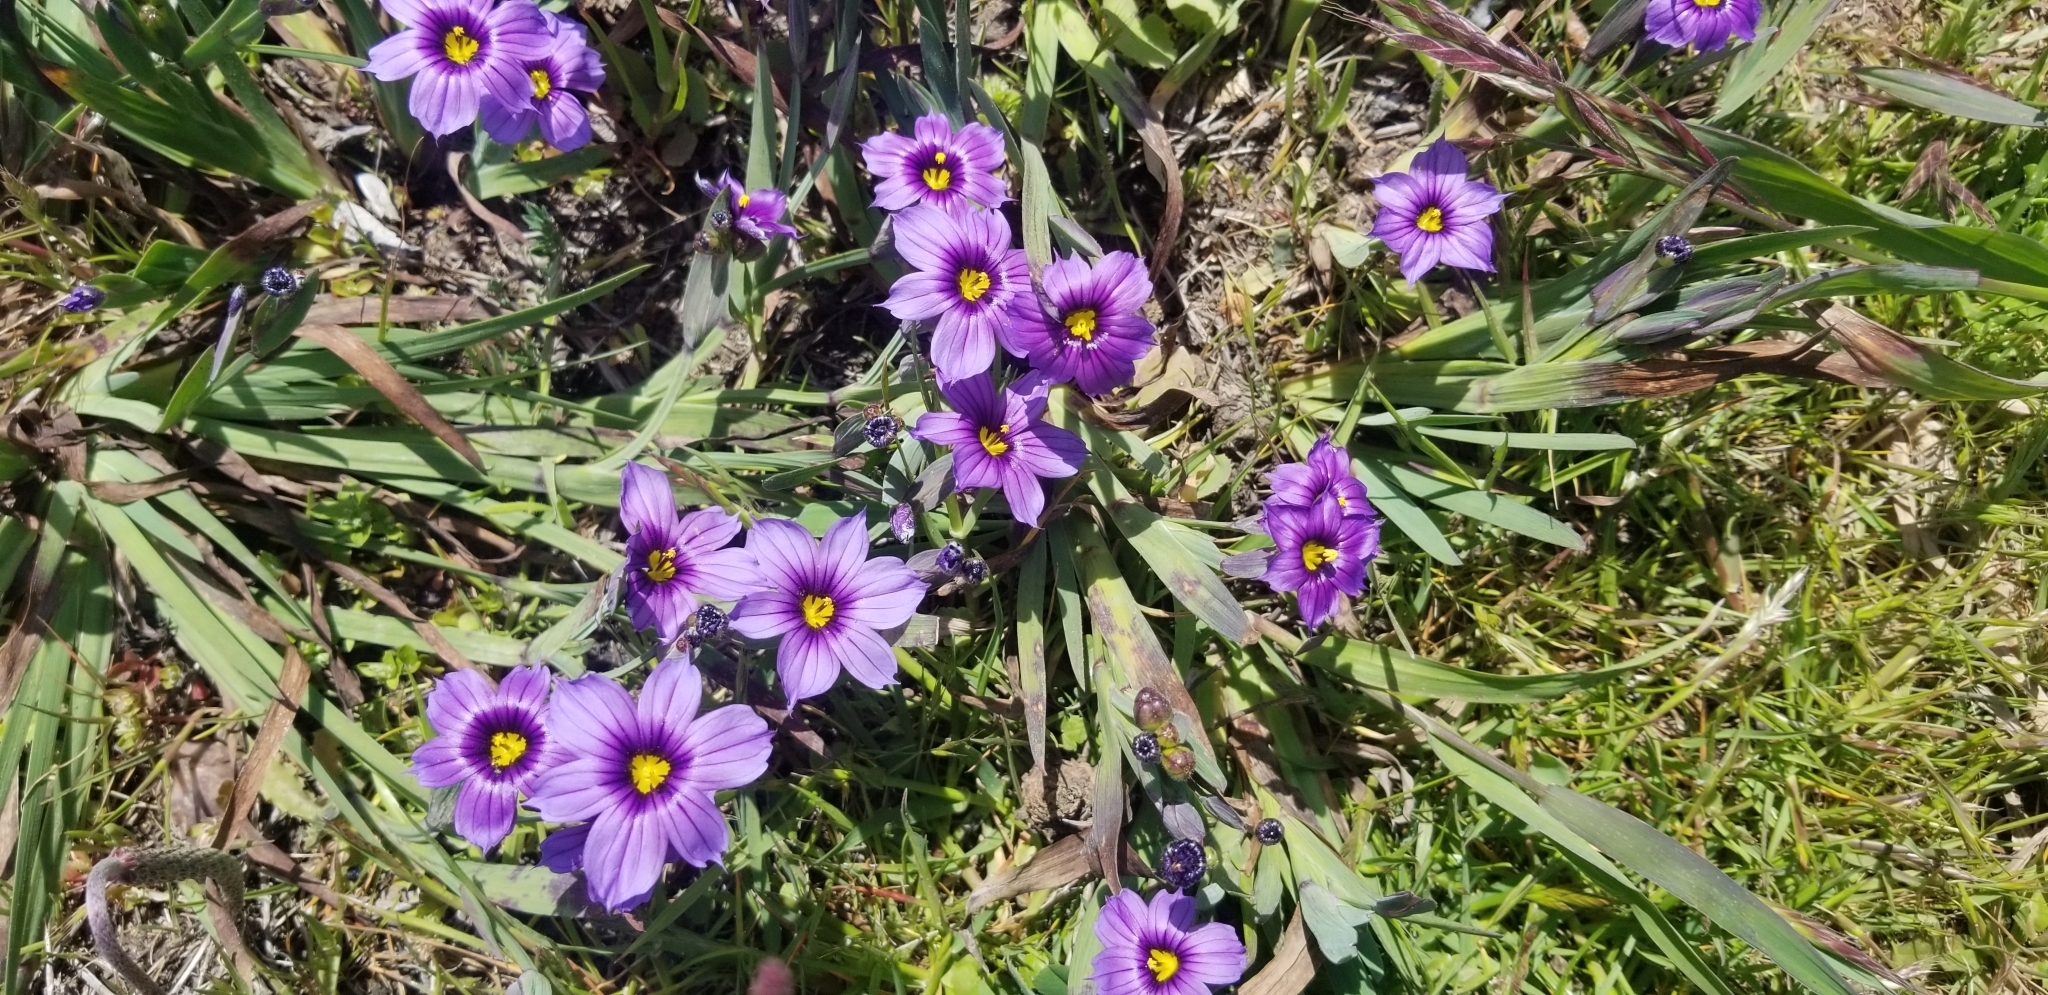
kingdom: Plantae
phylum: Tracheophyta
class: Liliopsida
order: Asparagales
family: Iridaceae
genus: Sisyrinchium
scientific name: Sisyrinchium bellum
